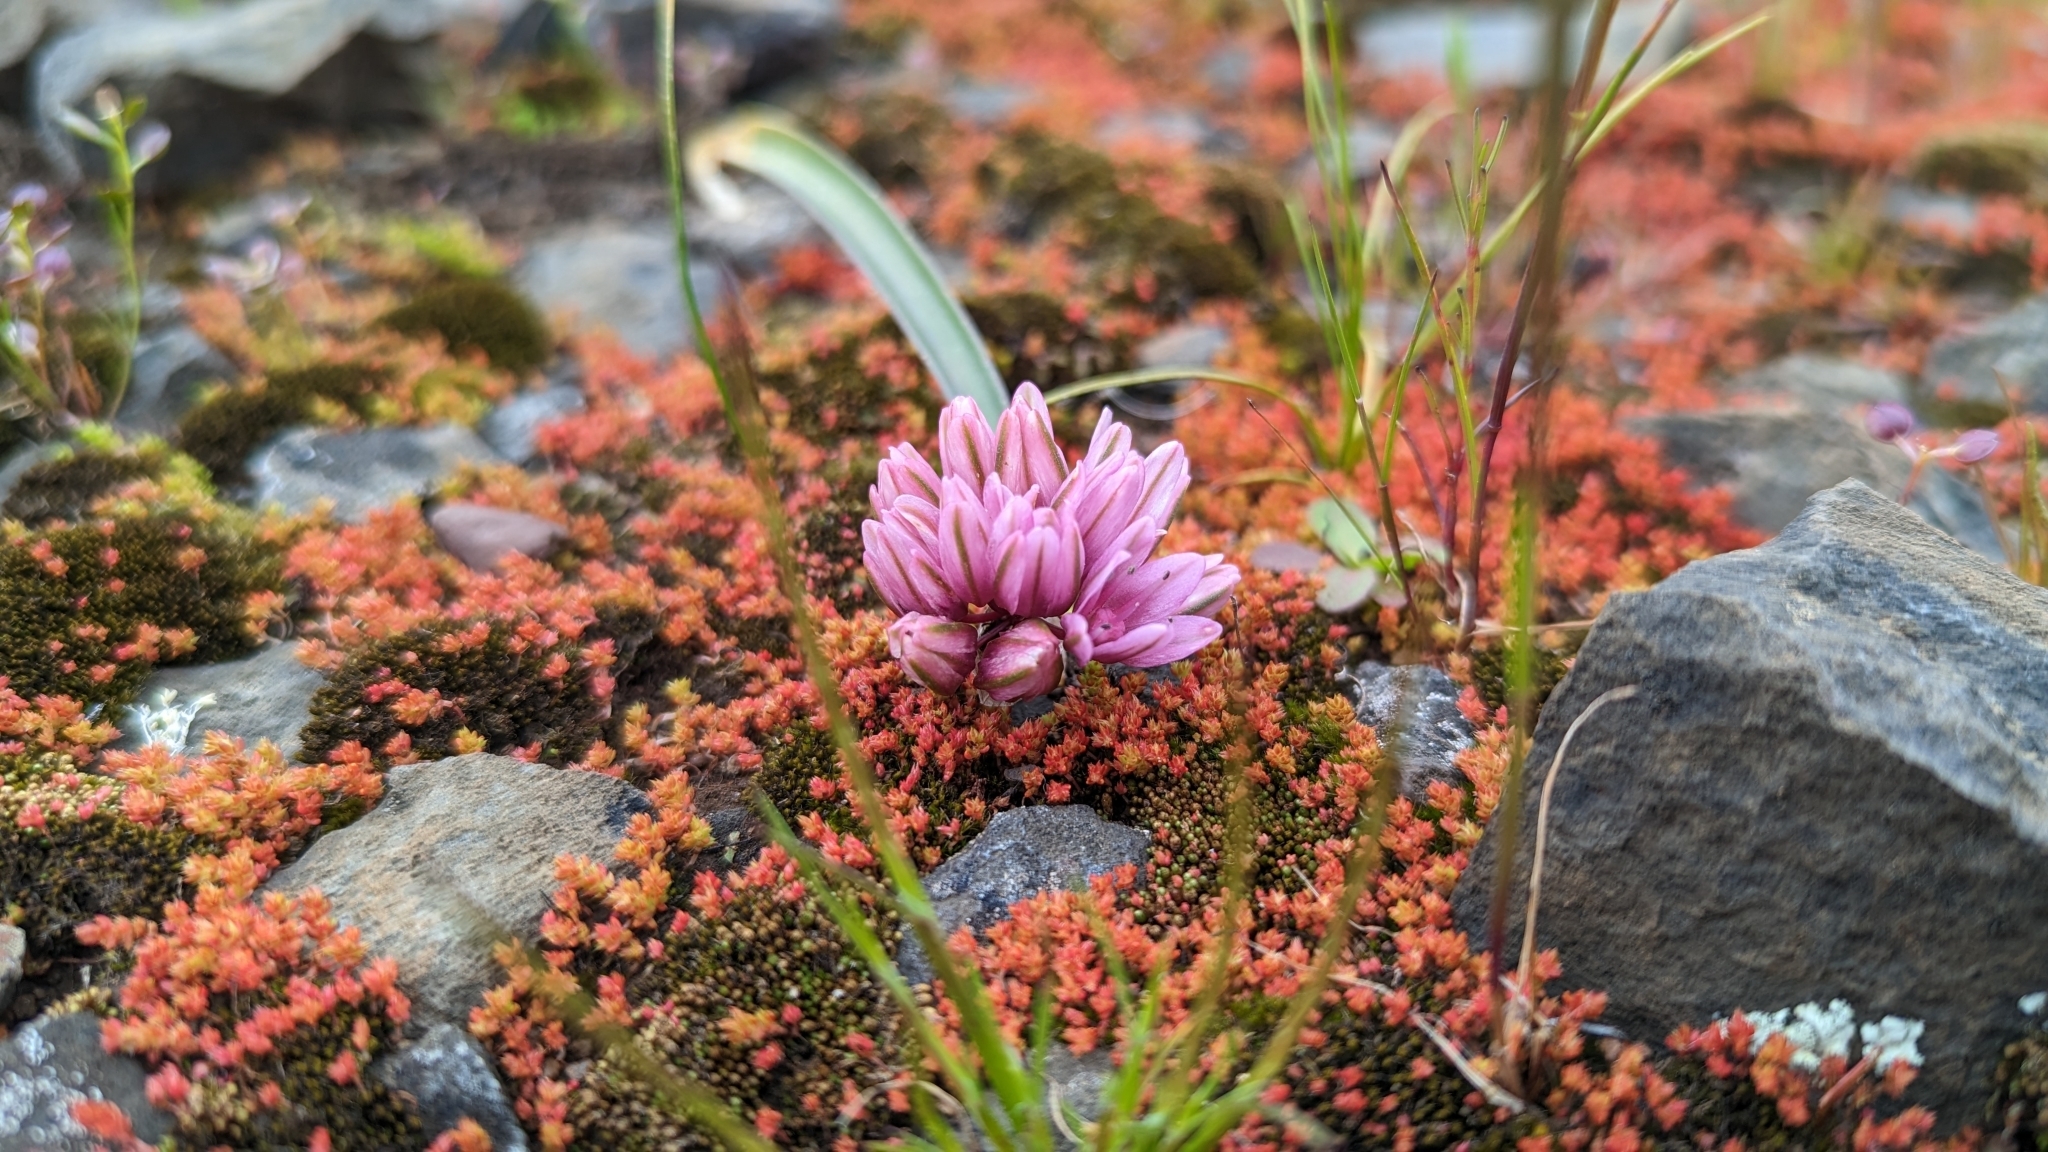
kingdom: Plantae
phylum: Tracheophyta
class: Liliopsida
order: Asparagales
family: Amaryllidaceae
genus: Allium
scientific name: Allium cratericola
